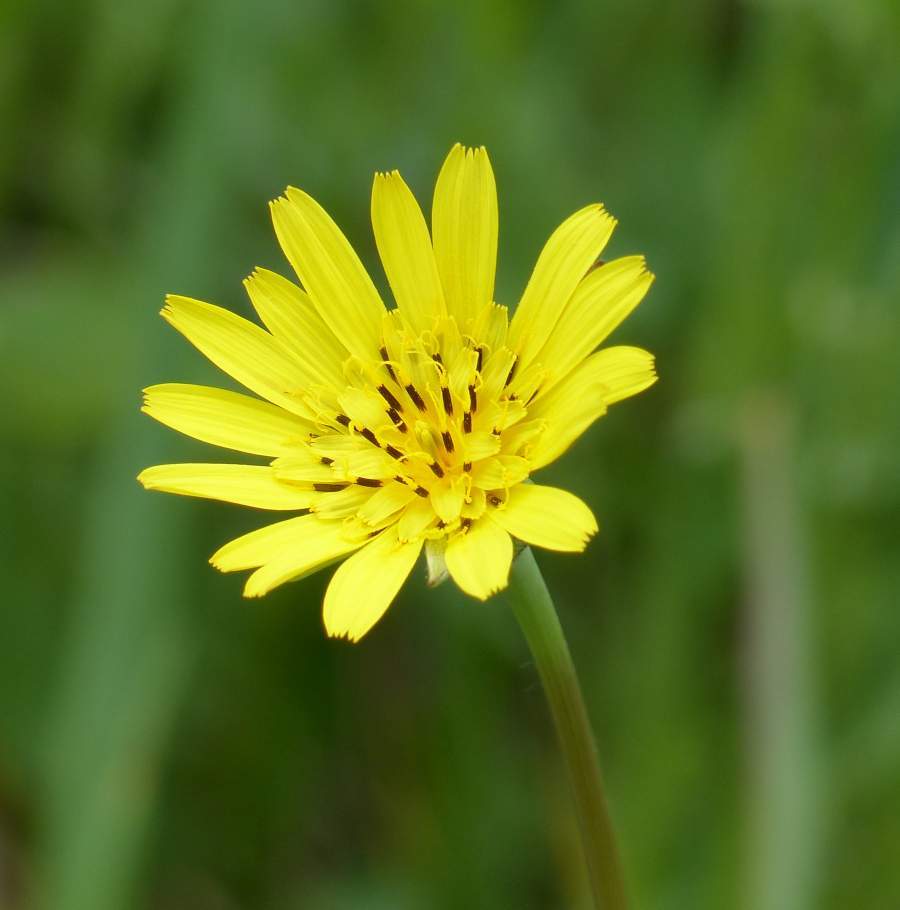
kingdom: Plantae
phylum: Tracheophyta
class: Magnoliopsida
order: Asterales
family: Asteraceae
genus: Tragopogon
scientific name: Tragopogon pratensis
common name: Goat's-beard
